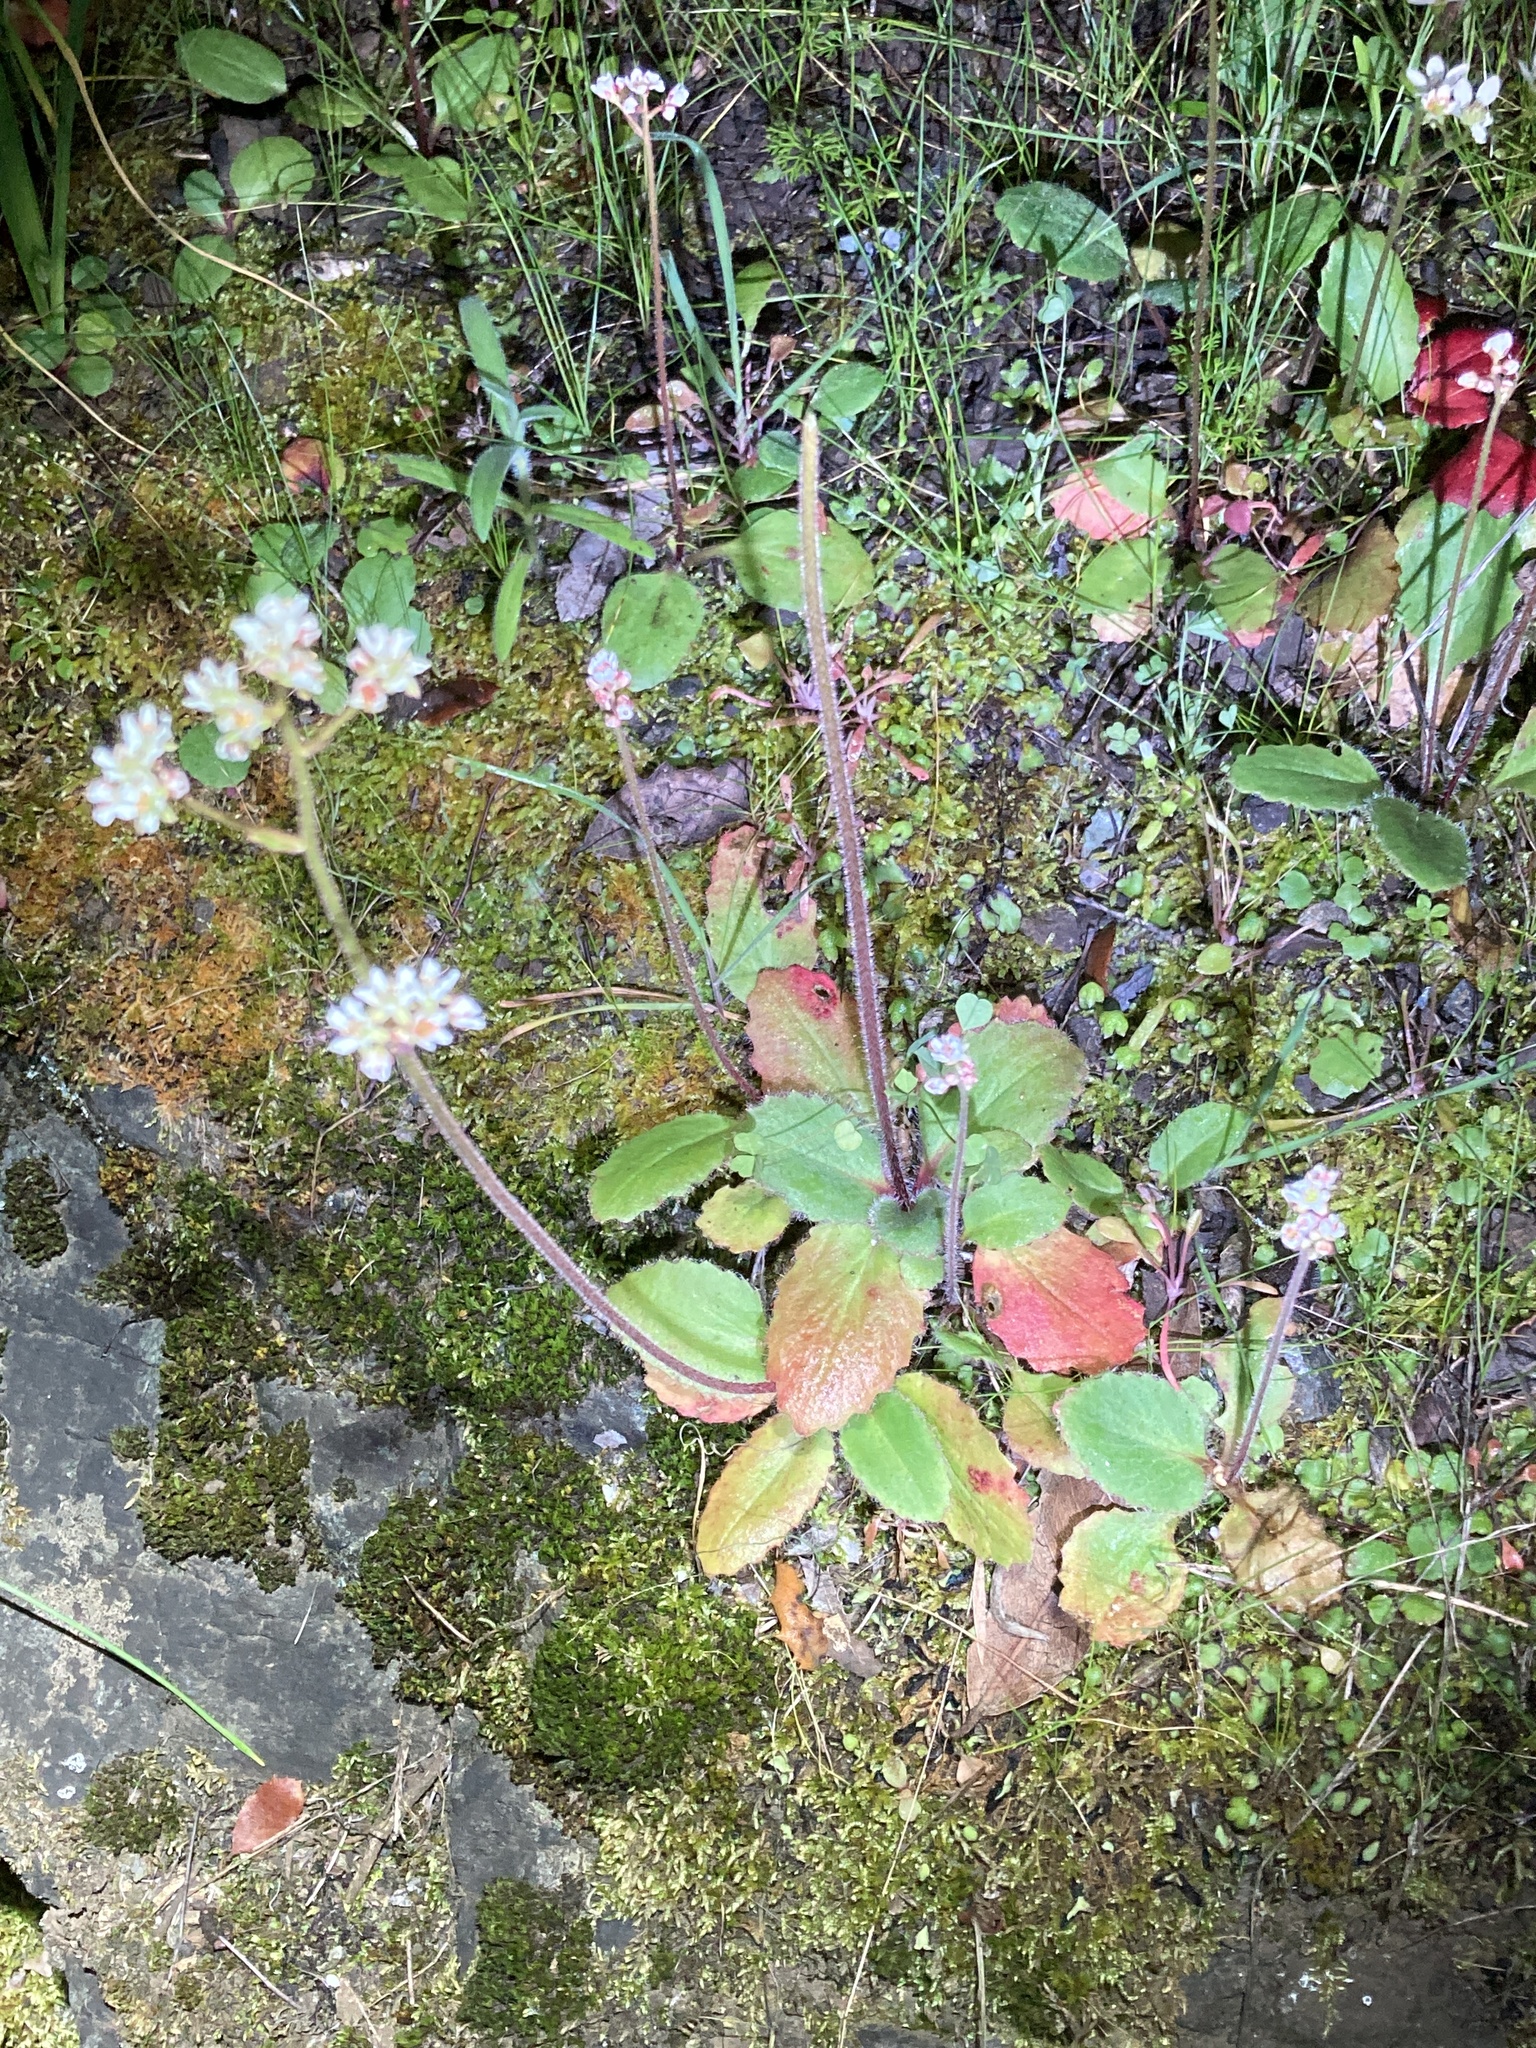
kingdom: Plantae
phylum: Tracheophyta
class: Magnoliopsida
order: Saxifragales
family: Saxifragaceae
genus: Micranthes
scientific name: Micranthes californica
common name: California saxifrage
